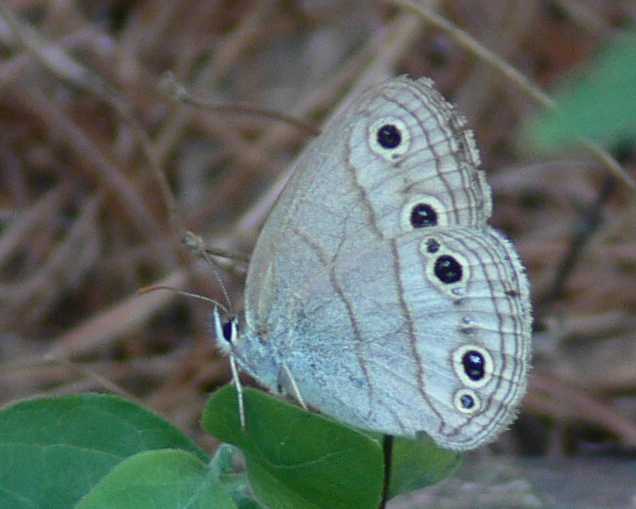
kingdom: Animalia
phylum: Arthropoda
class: Insecta
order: Lepidoptera
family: Nymphalidae
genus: Euptychia
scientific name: Euptychia cymela
